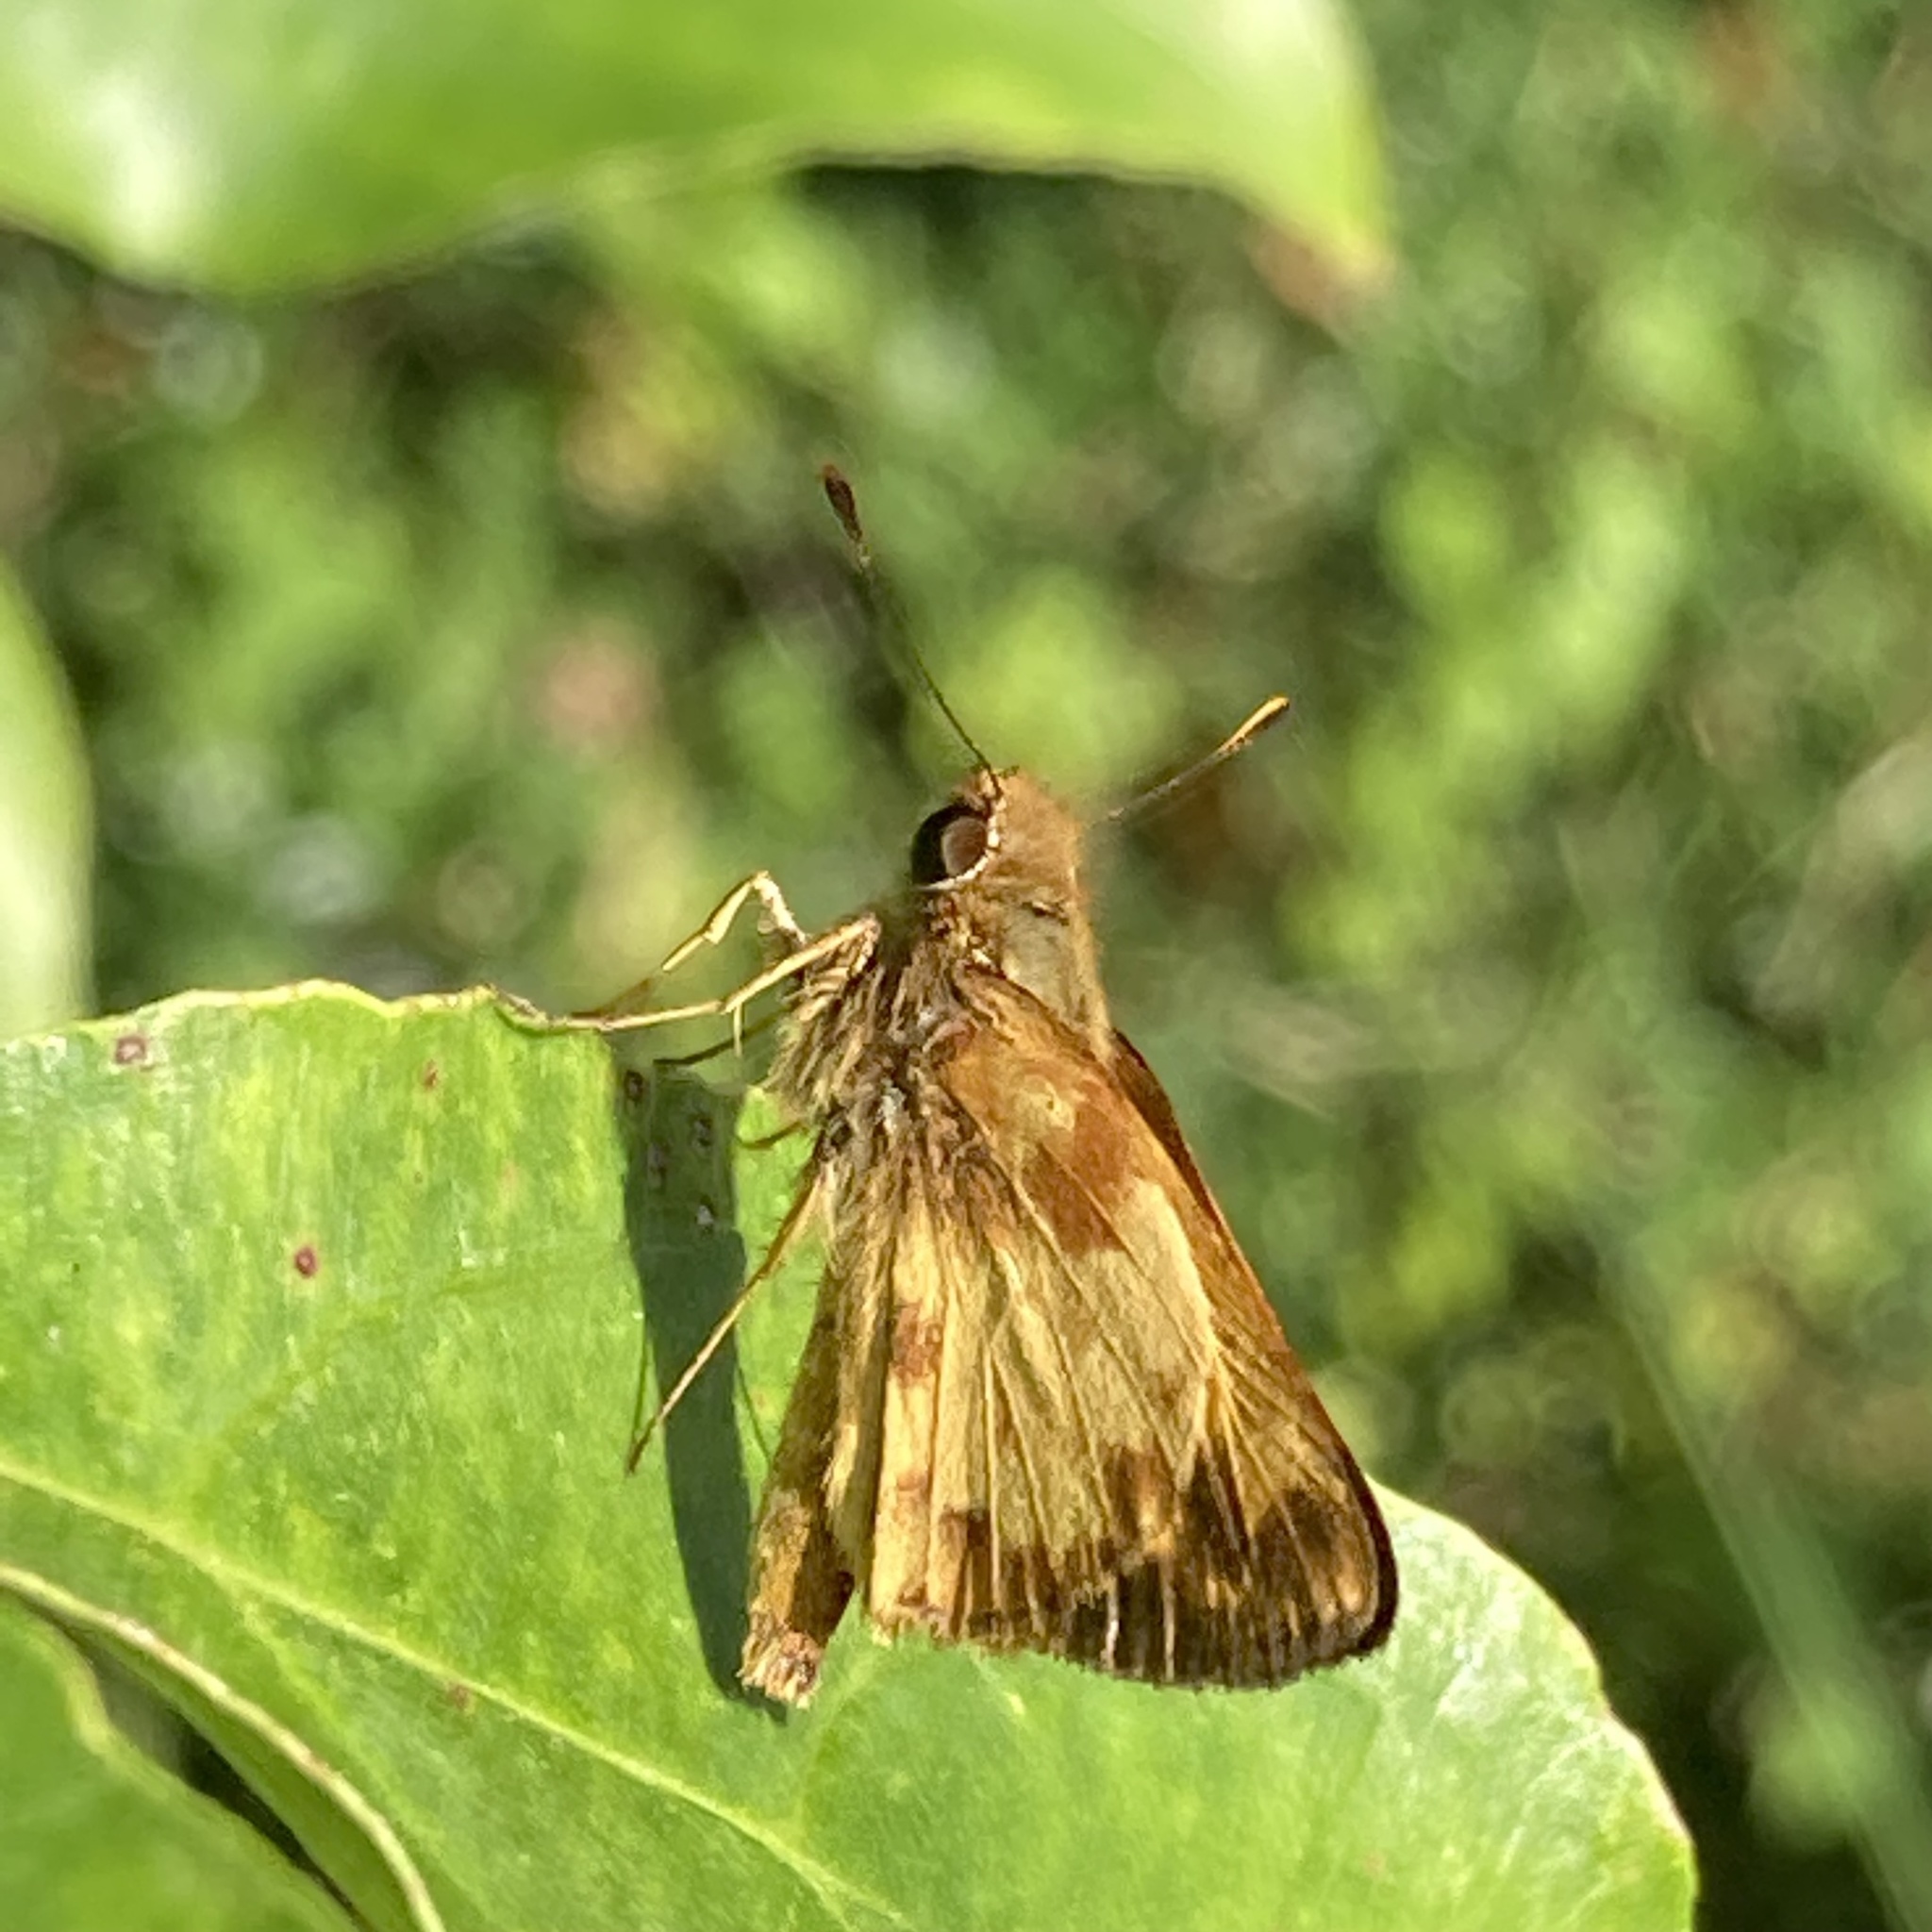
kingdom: Animalia
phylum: Arthropoda
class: Insecta
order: Lepidoptera
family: Hesperiidae
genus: Lon
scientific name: Lon zabulon
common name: Zabulon skipper
